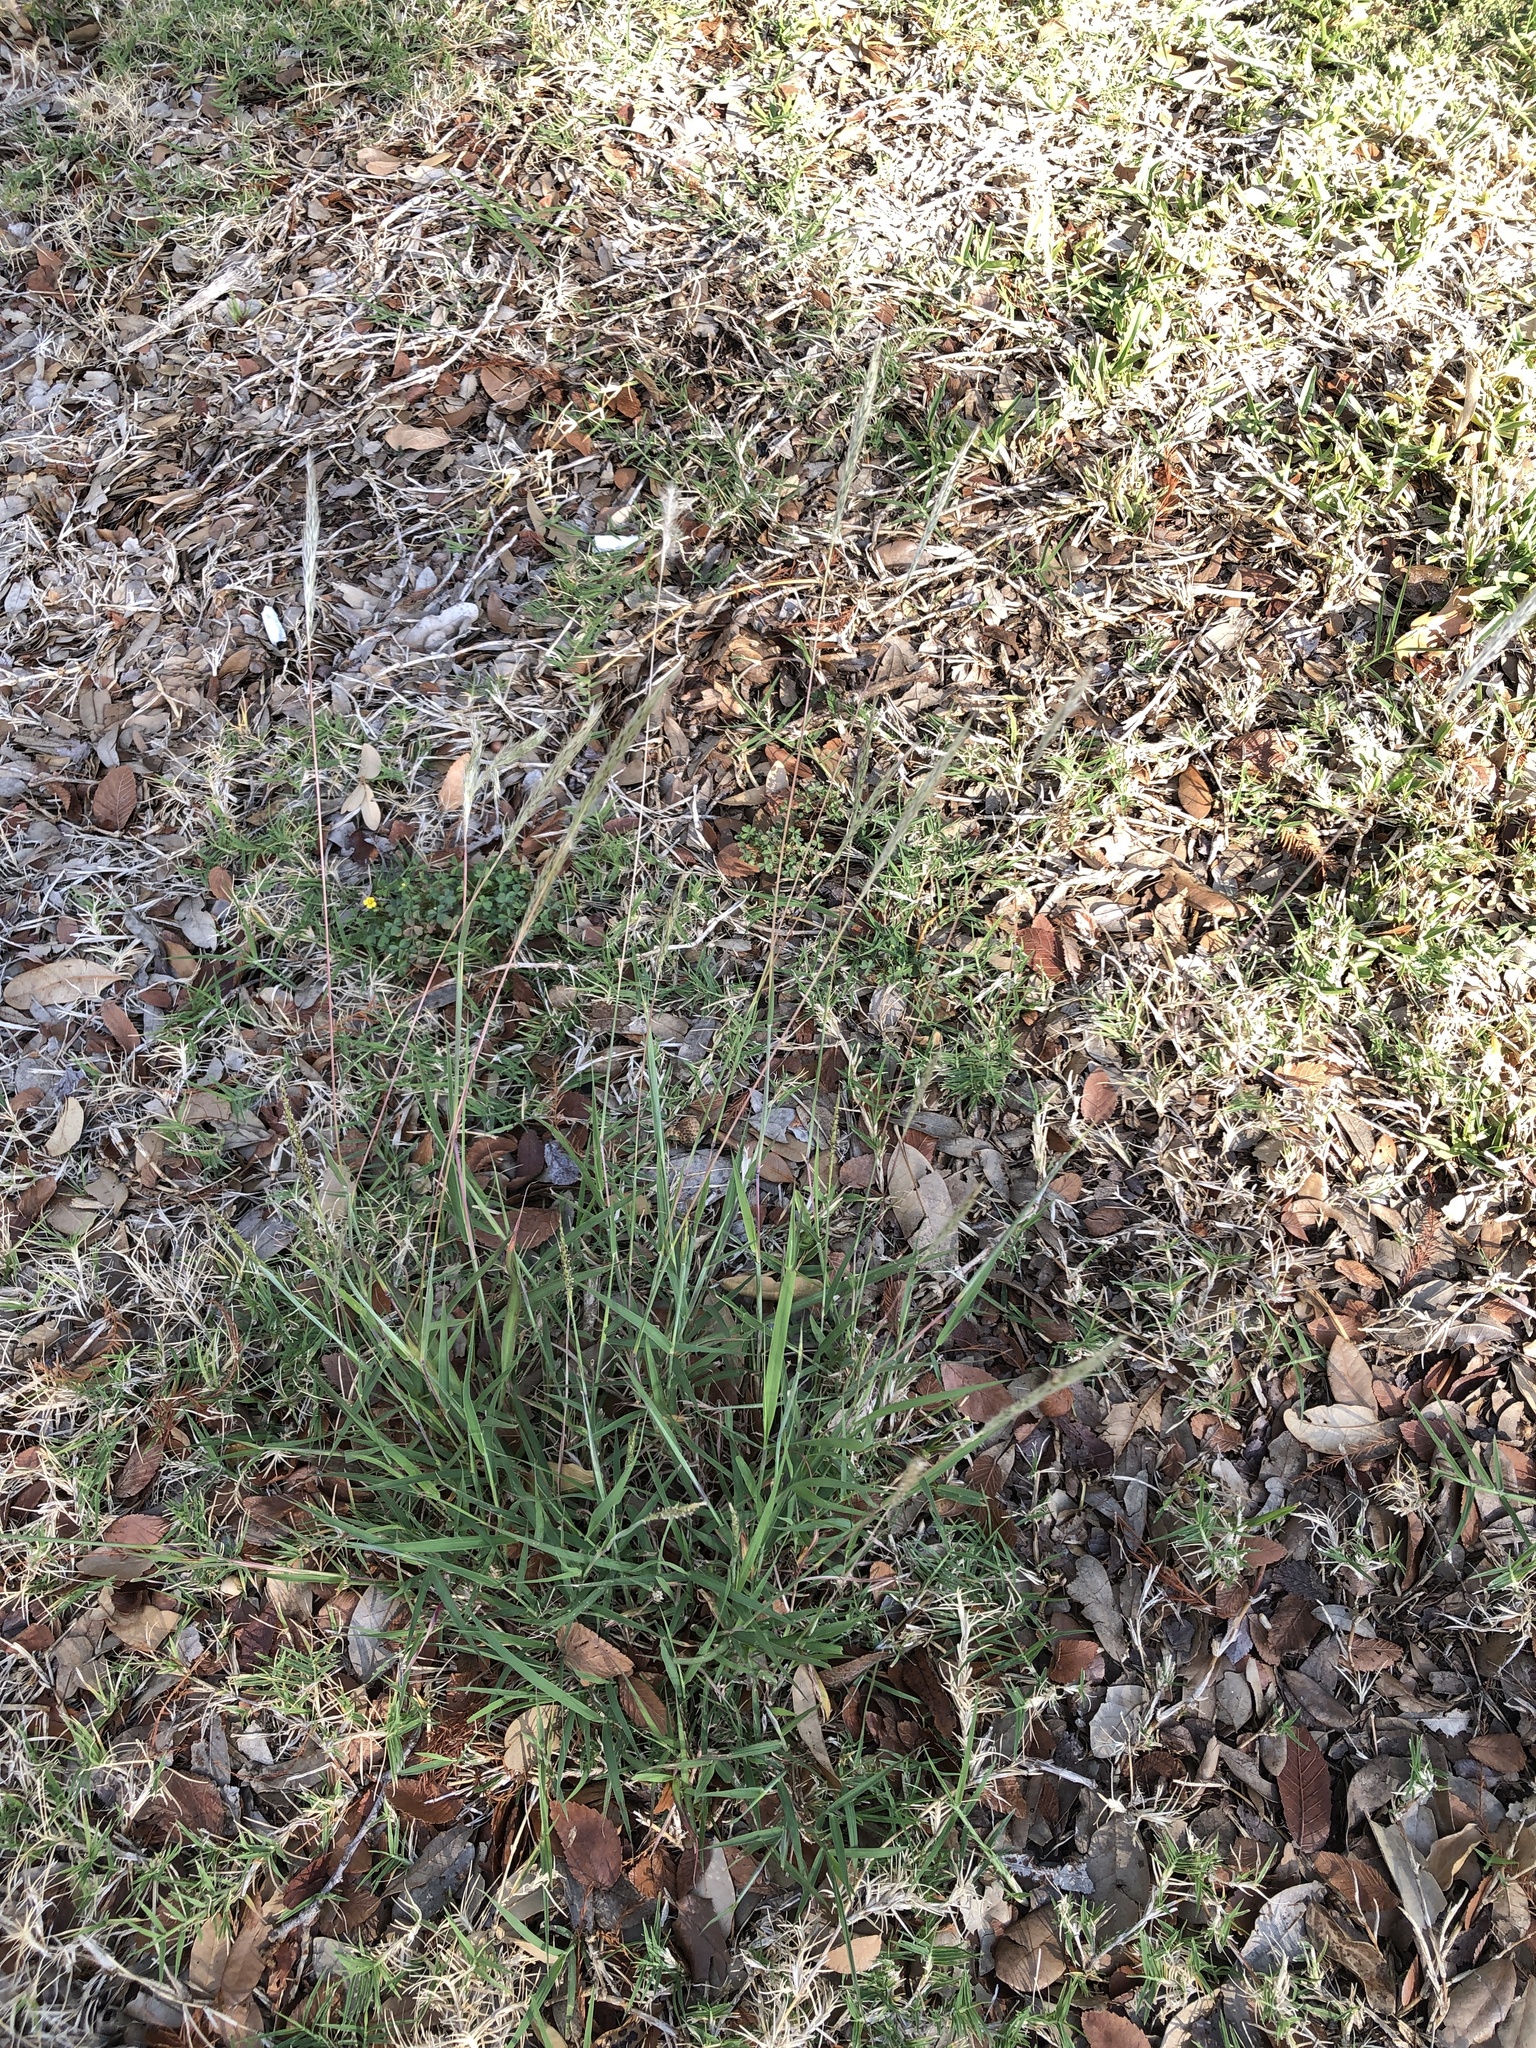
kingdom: Plantae
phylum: Tracheophyta
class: Liliopsida
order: Poales
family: Poaceae
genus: Bothriochloa
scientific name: Bothriochloa torreyana
